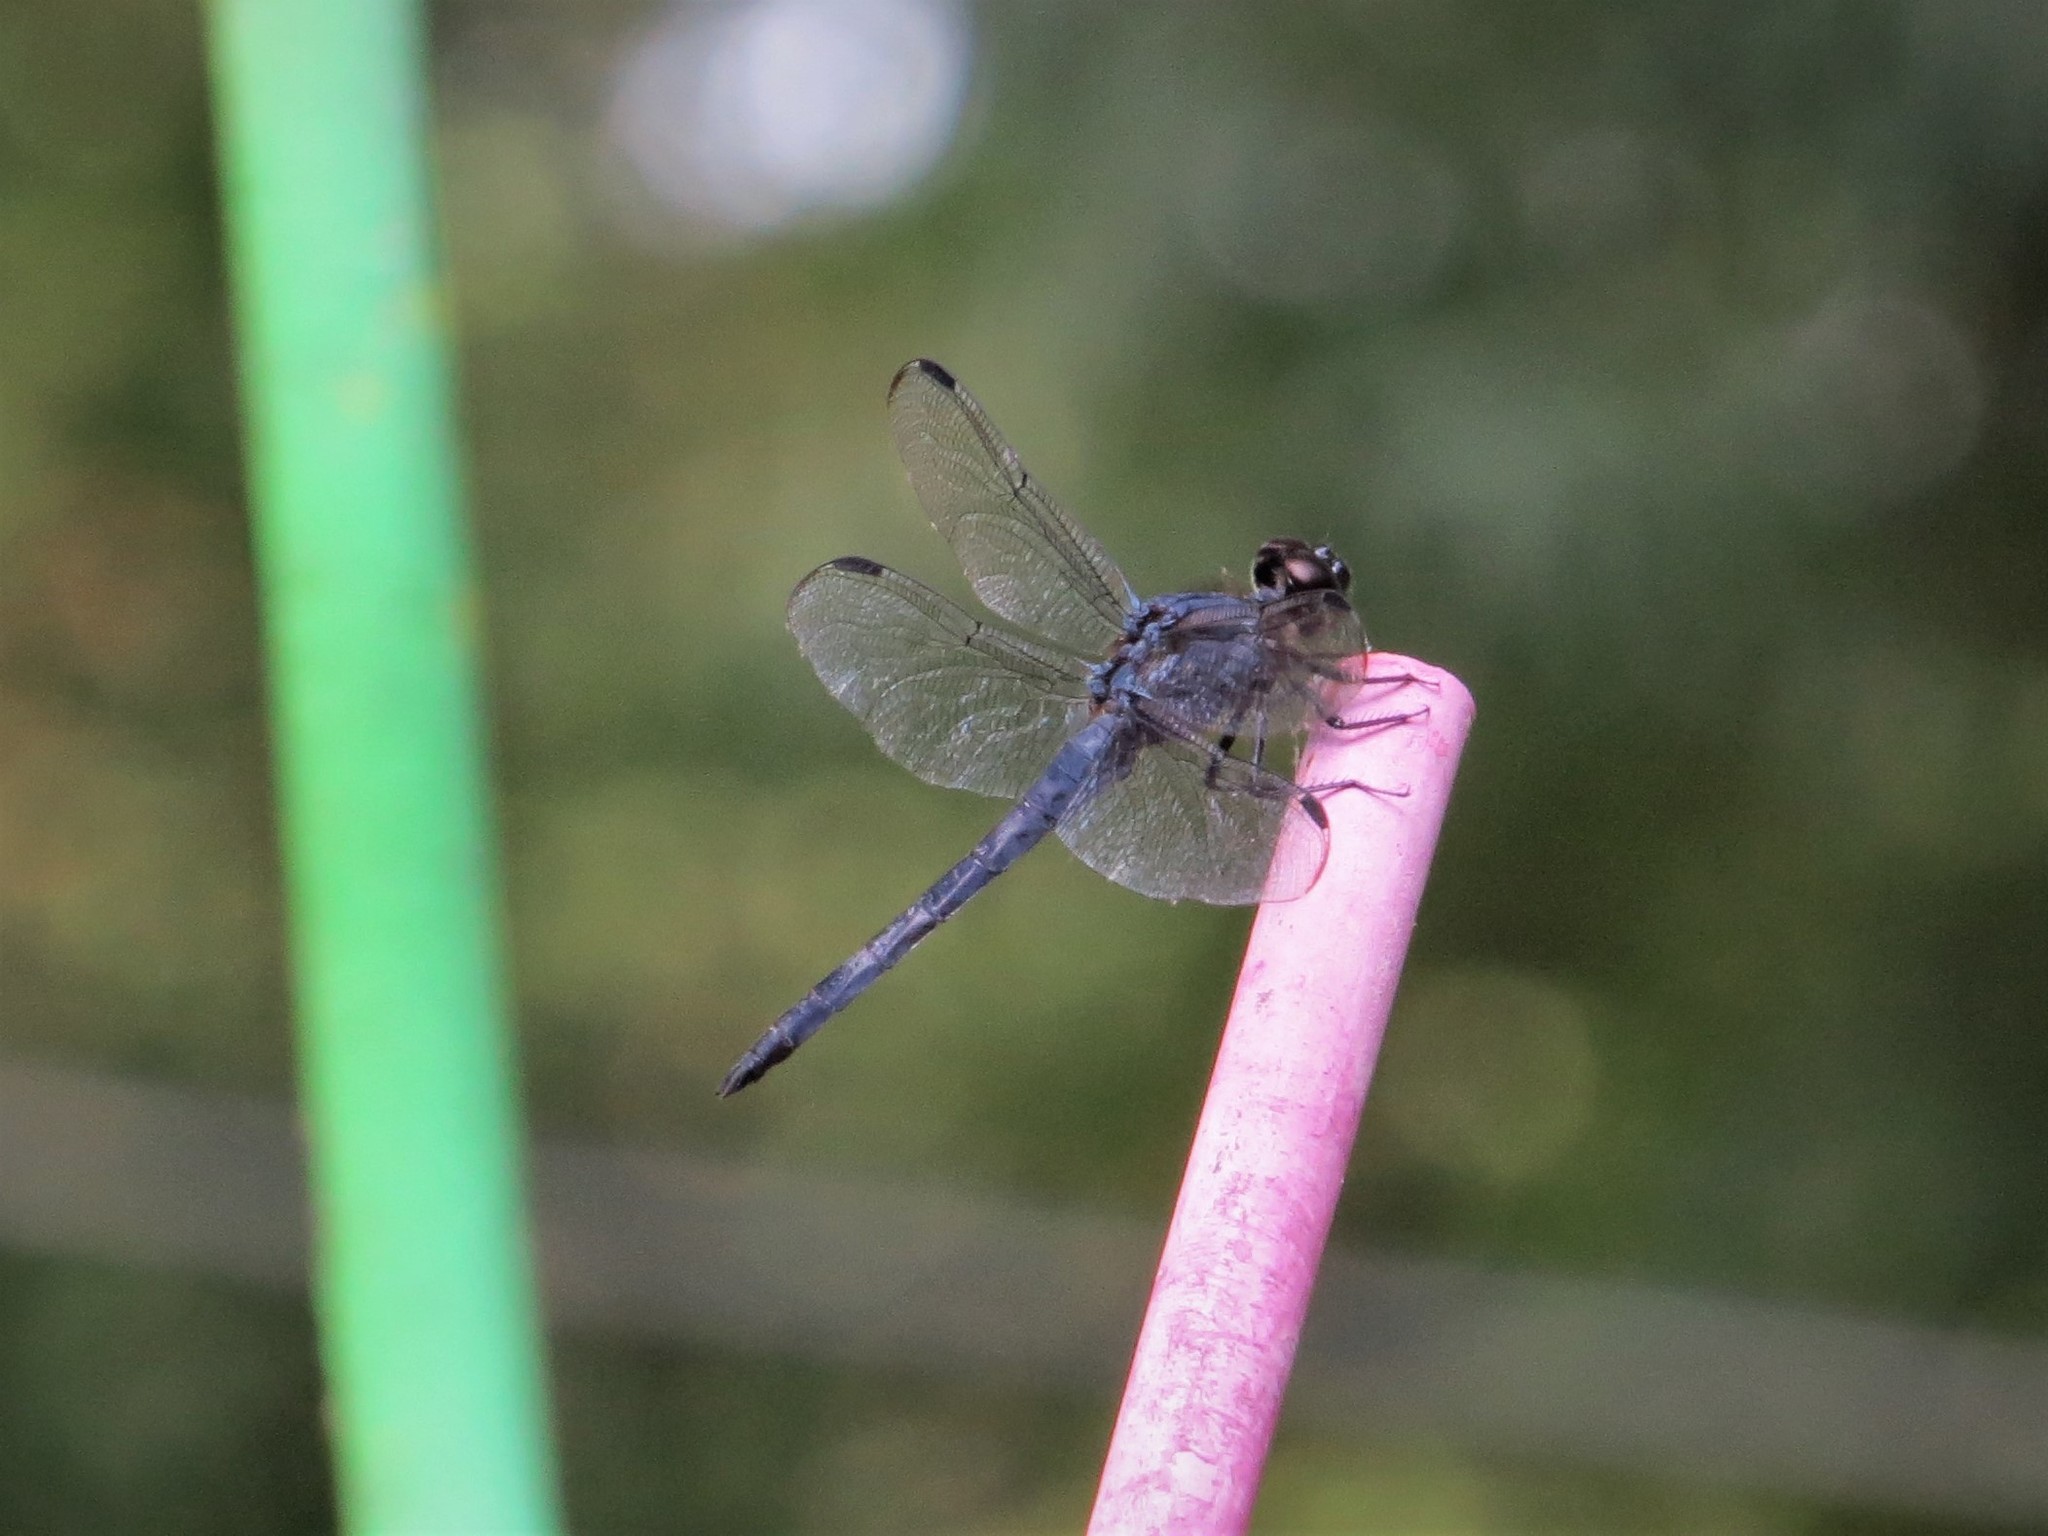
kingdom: Animalia
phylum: Arthropoda
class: Insecta
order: Odonata
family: Libellulidae
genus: Libellula
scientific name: Libellula incesta
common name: Slaty skimmer
